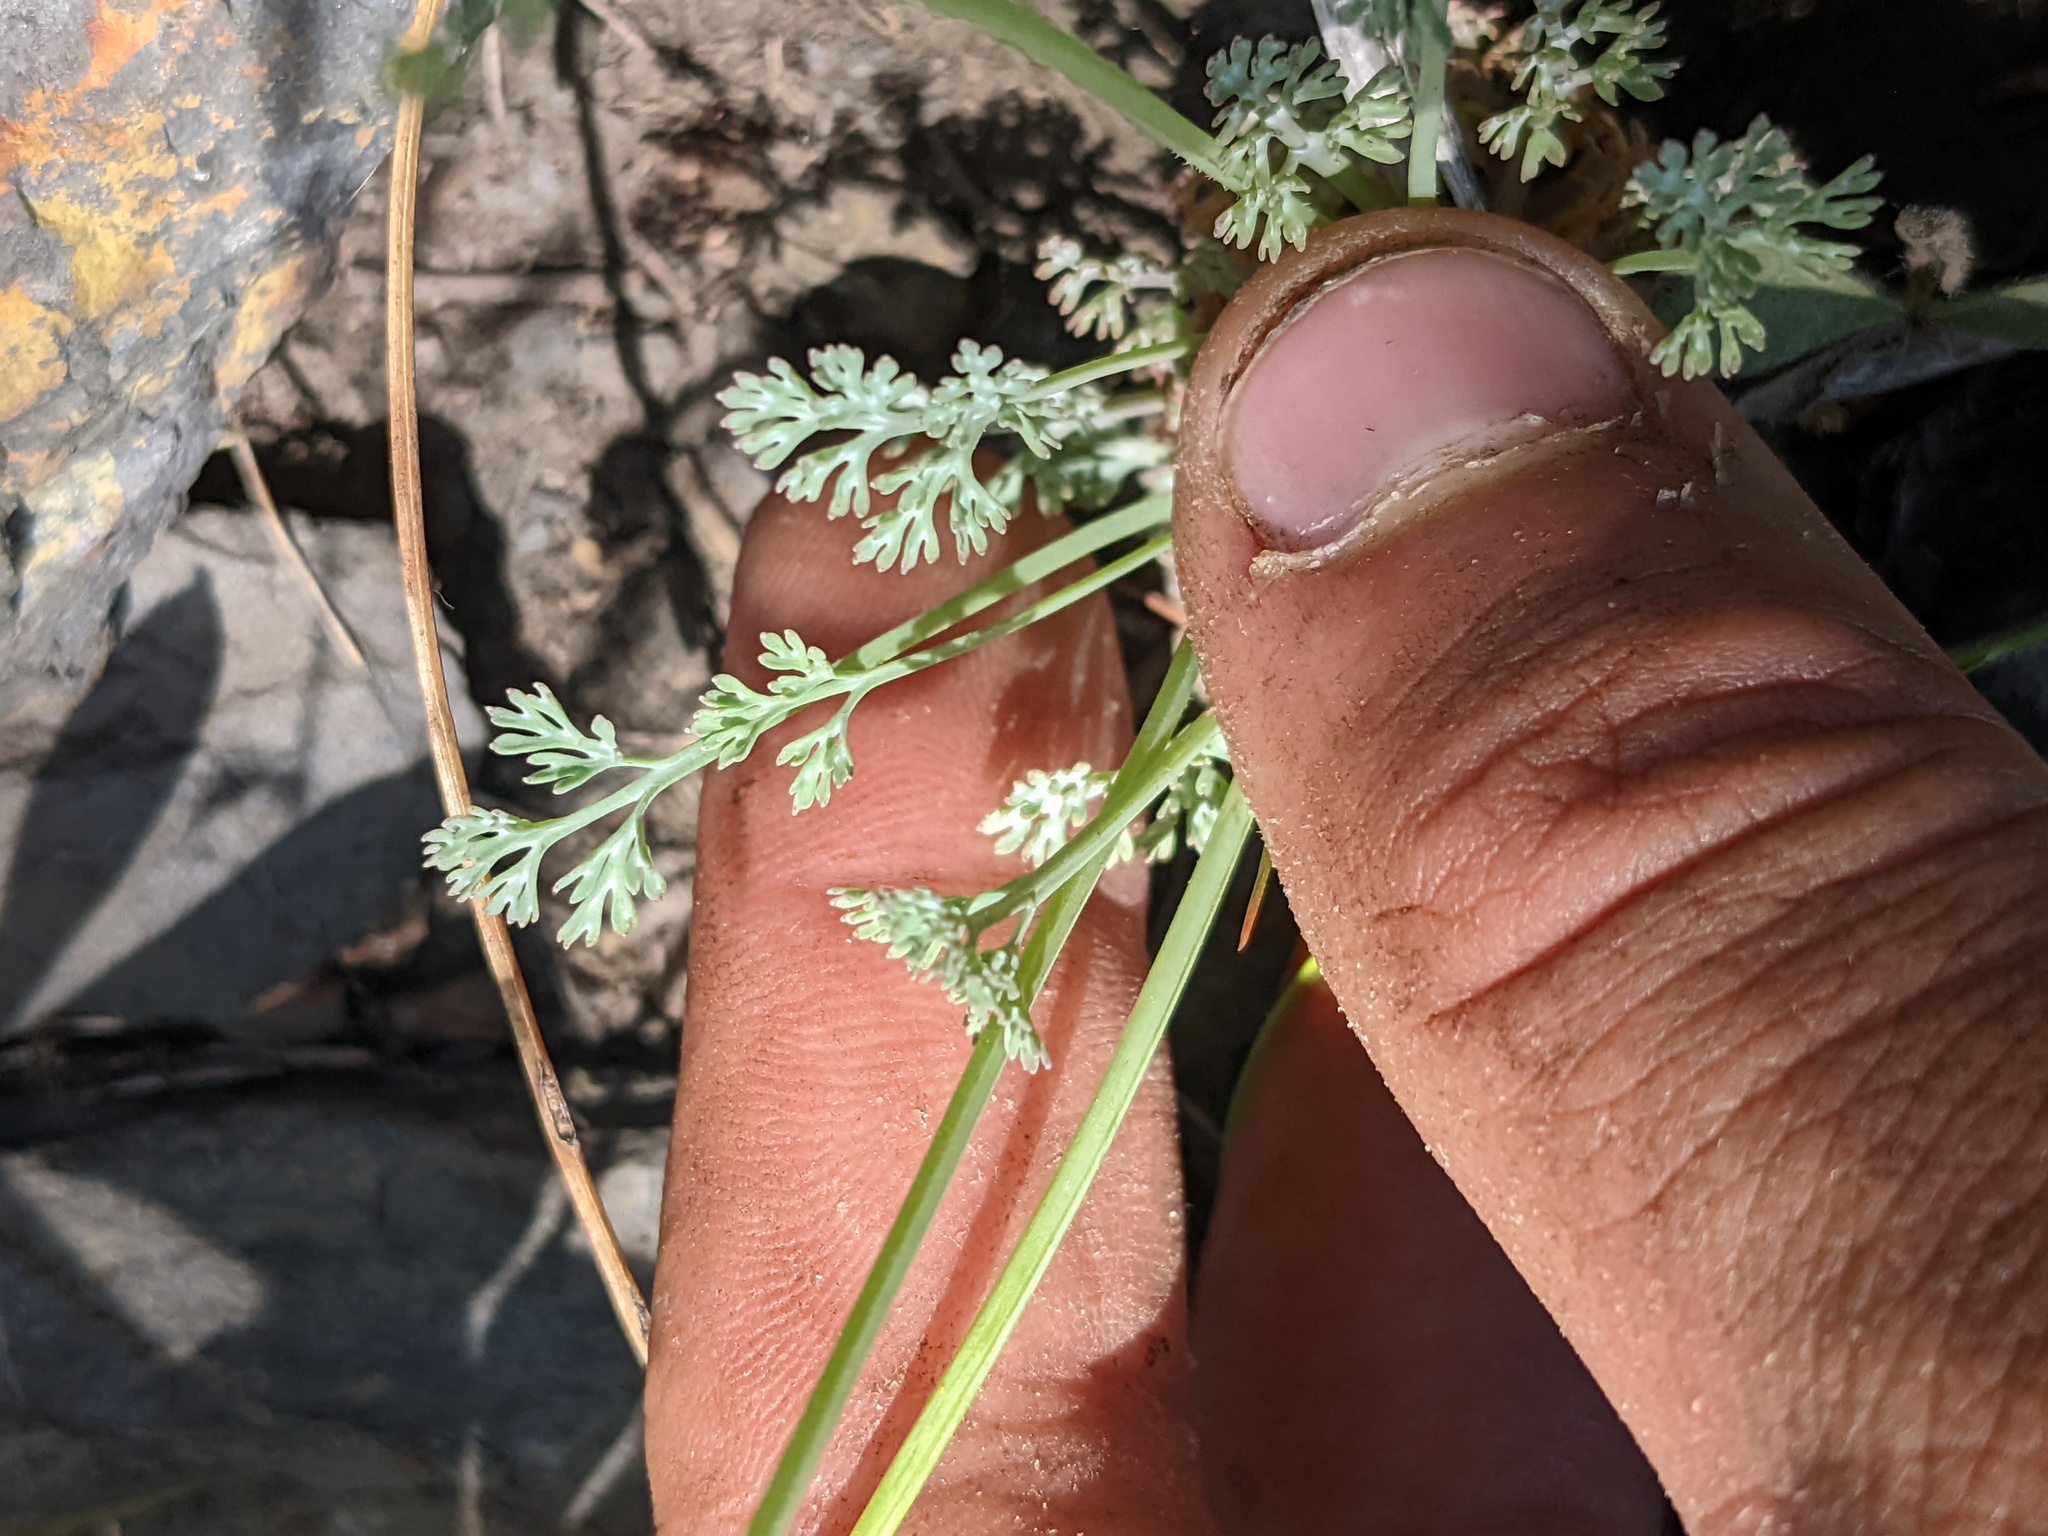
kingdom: Plantae
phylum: Tracheophyta
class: Magnoliopsida
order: Ranunculales
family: Papaveraceae
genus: Eschscholzia
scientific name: Eschscholzia caespitosa
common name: Tufted california-poppy
